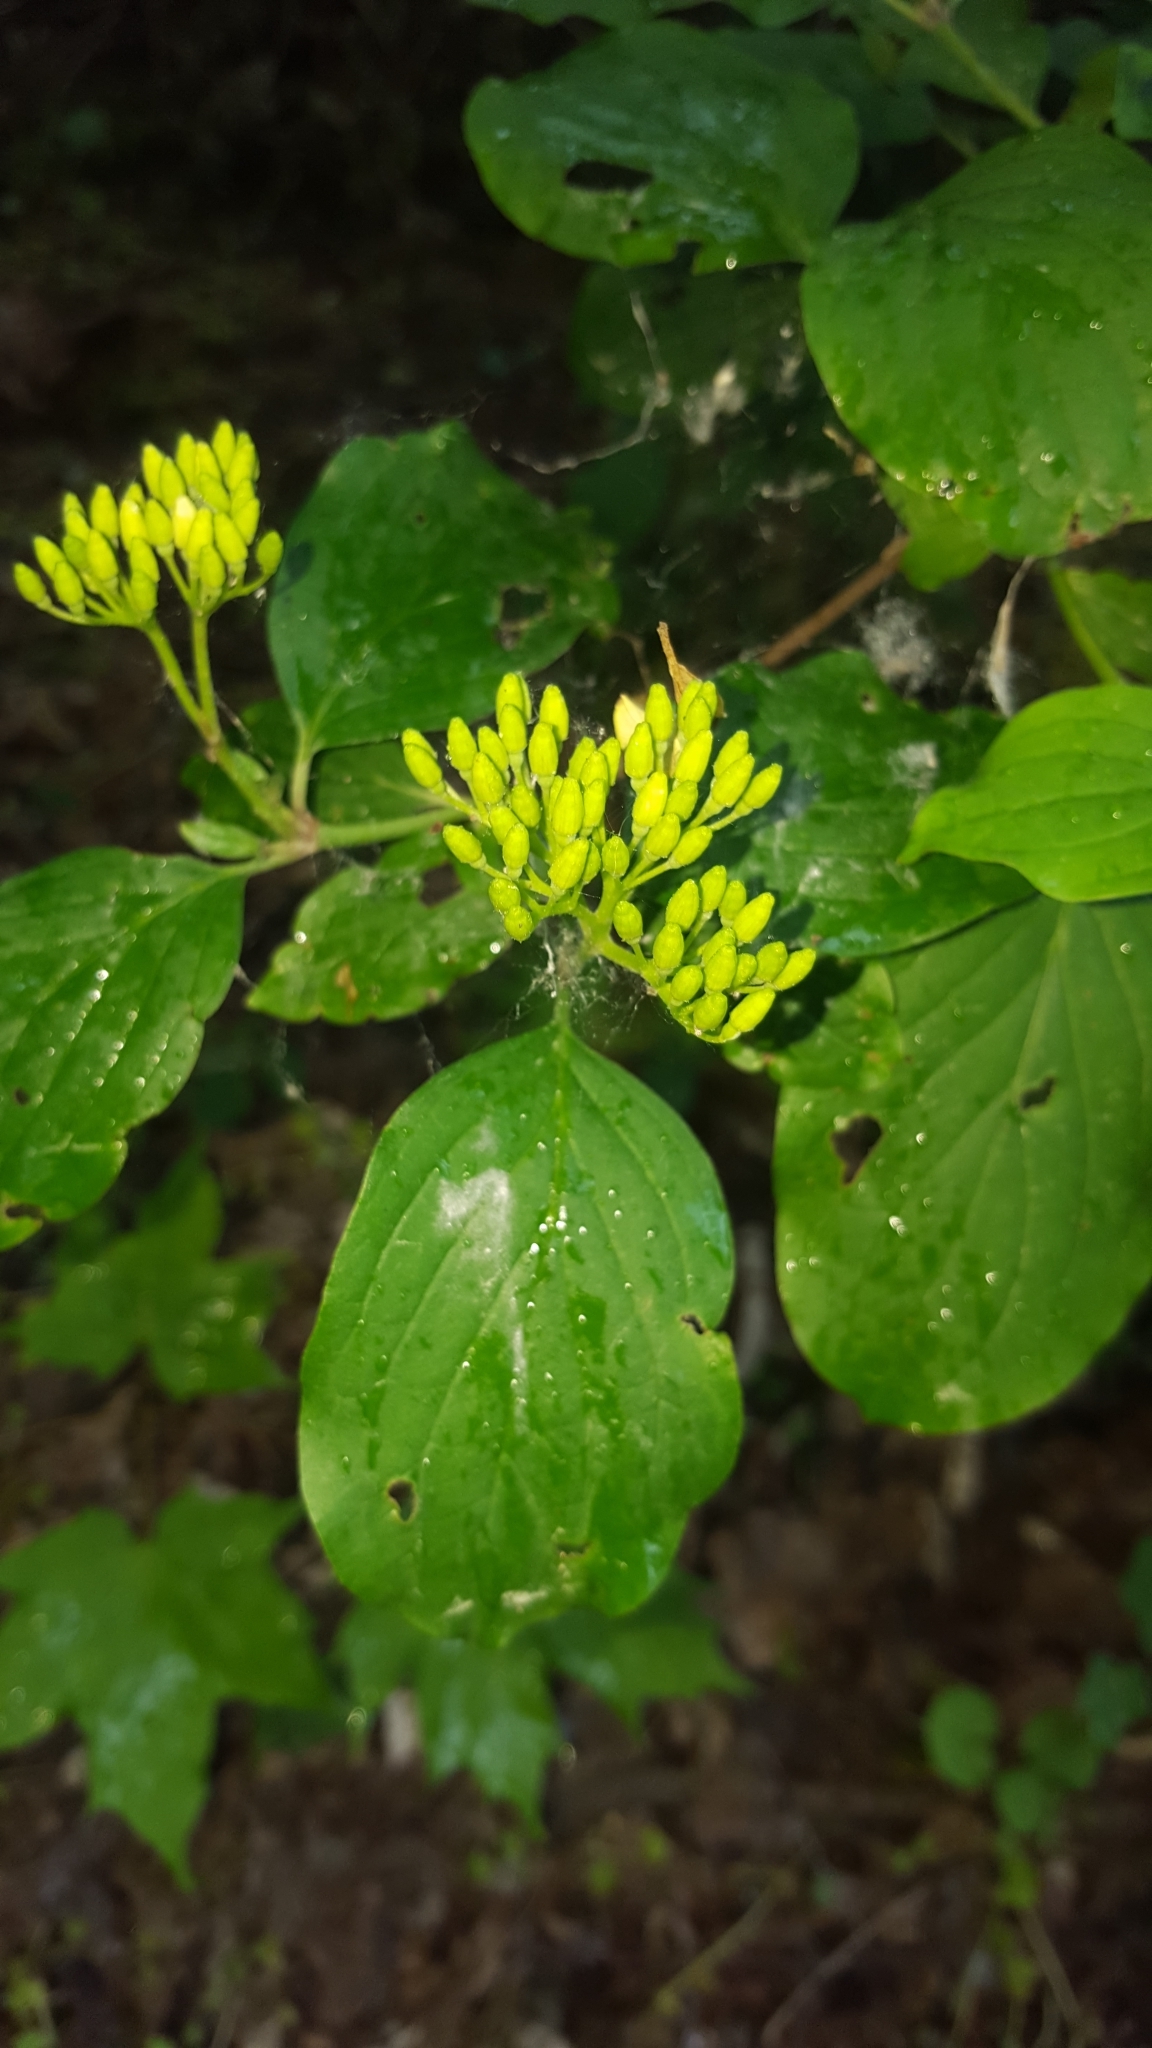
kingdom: Plantae
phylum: Tracheophyta
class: Magnoliopsida
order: Cornales
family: Cornaceae
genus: Cornus
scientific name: Cornus sanguinea
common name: Dogwood
